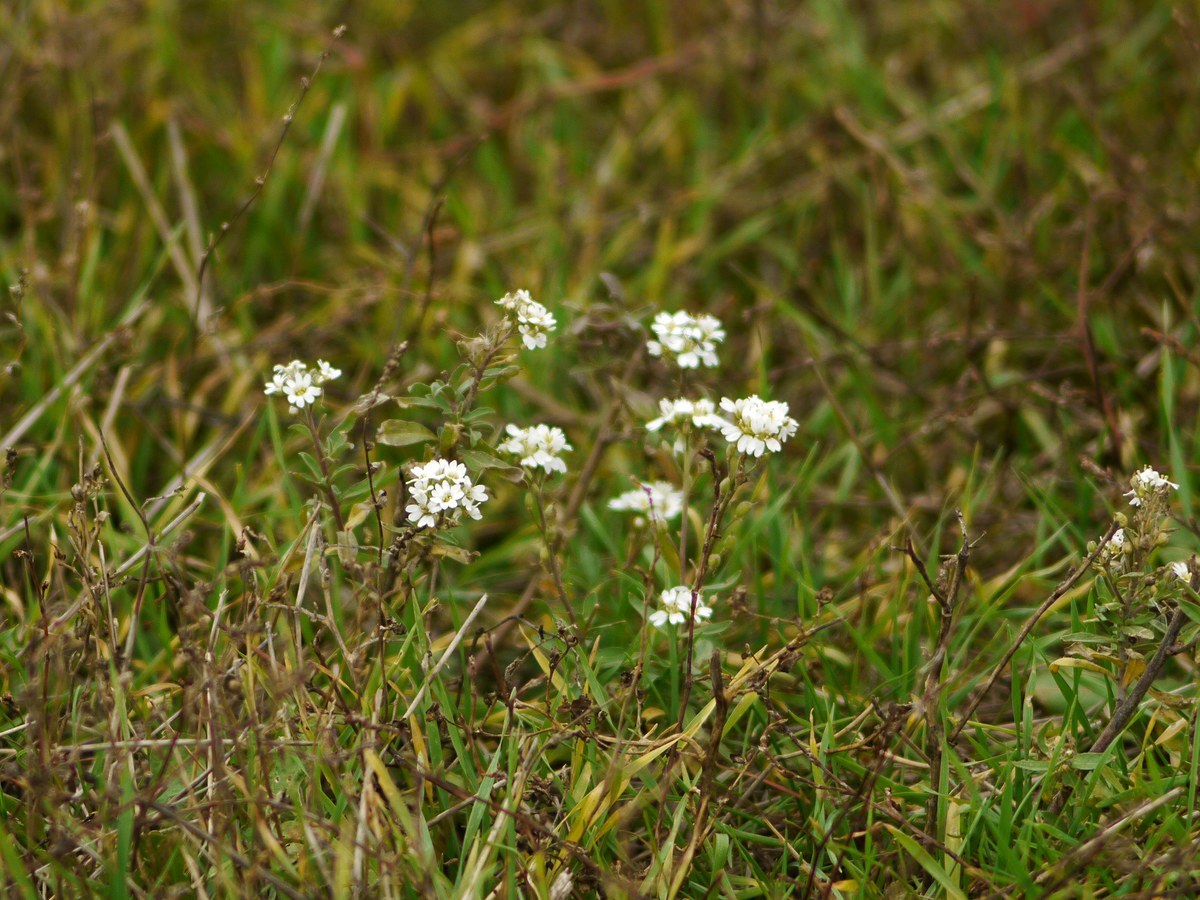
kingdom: Plantae
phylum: Tracheophyta
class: Magnoliopsida
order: Brassicales
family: Brassicaceae
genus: Berteroa
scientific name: Berteroa incana
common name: Hoary alison
